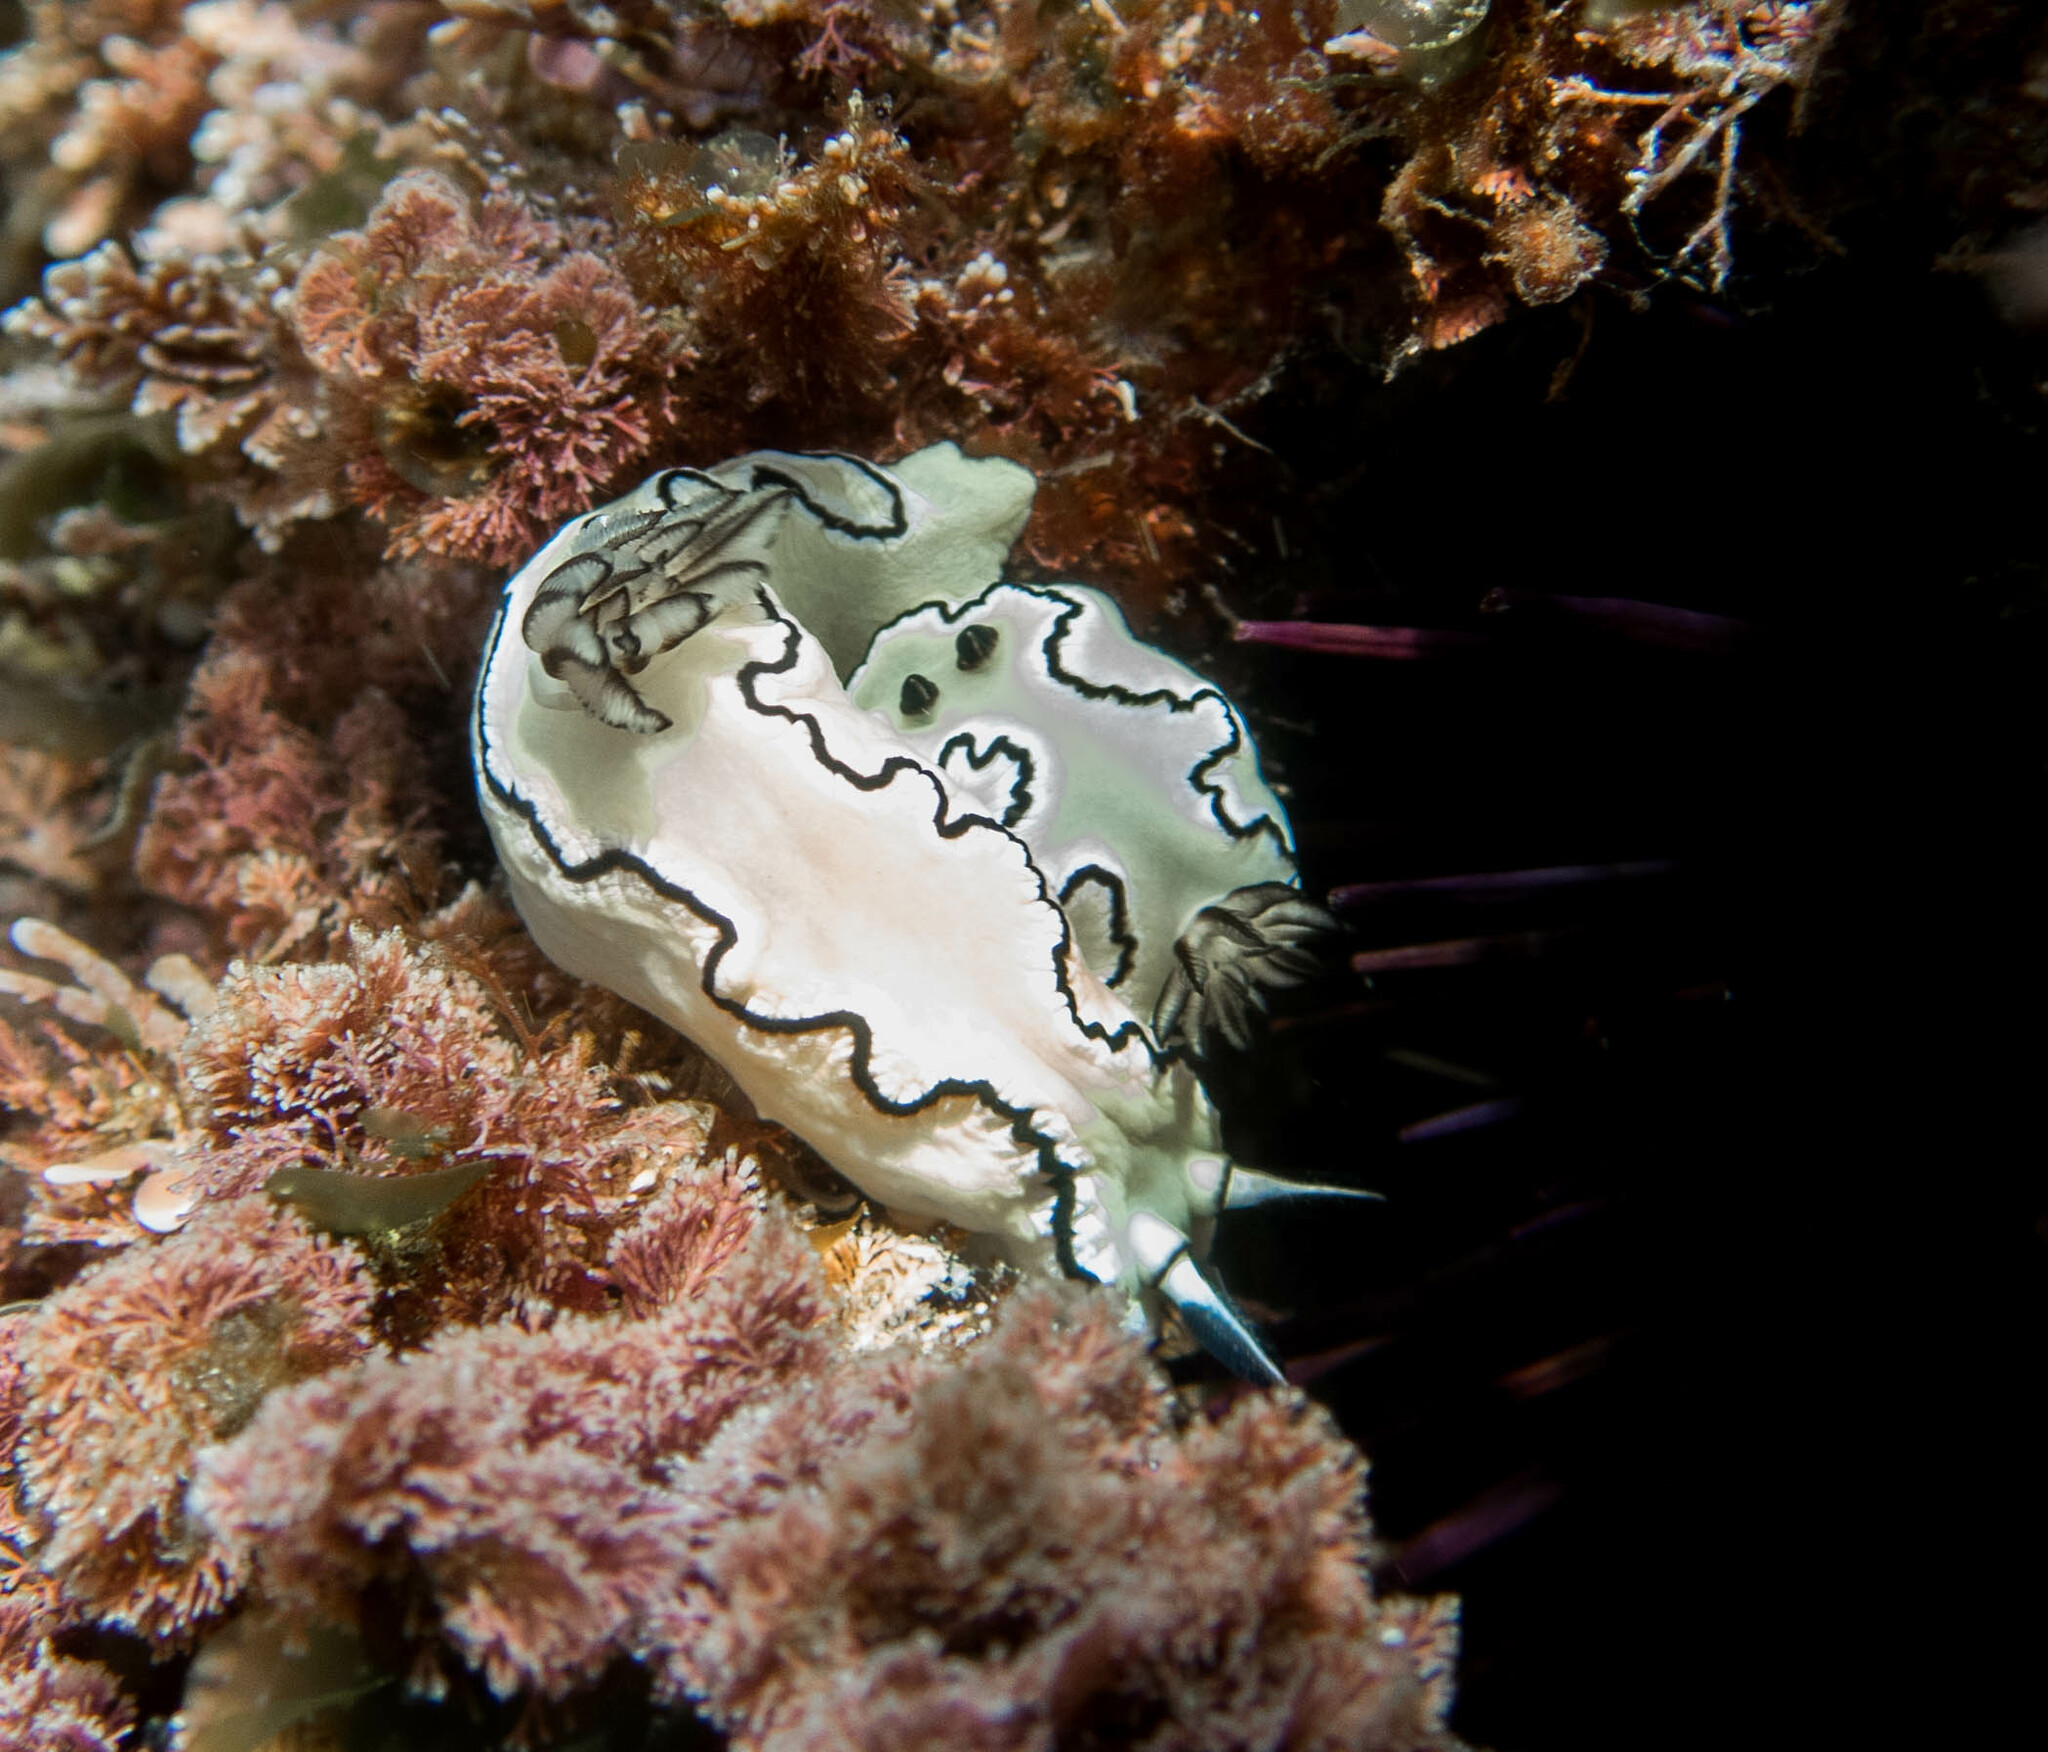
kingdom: Animalia
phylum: Mollusca
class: Gastropoda
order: Nudibranchia
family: Chromodorididae
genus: Doriprismatica
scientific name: Doriprismatica atromarginata
